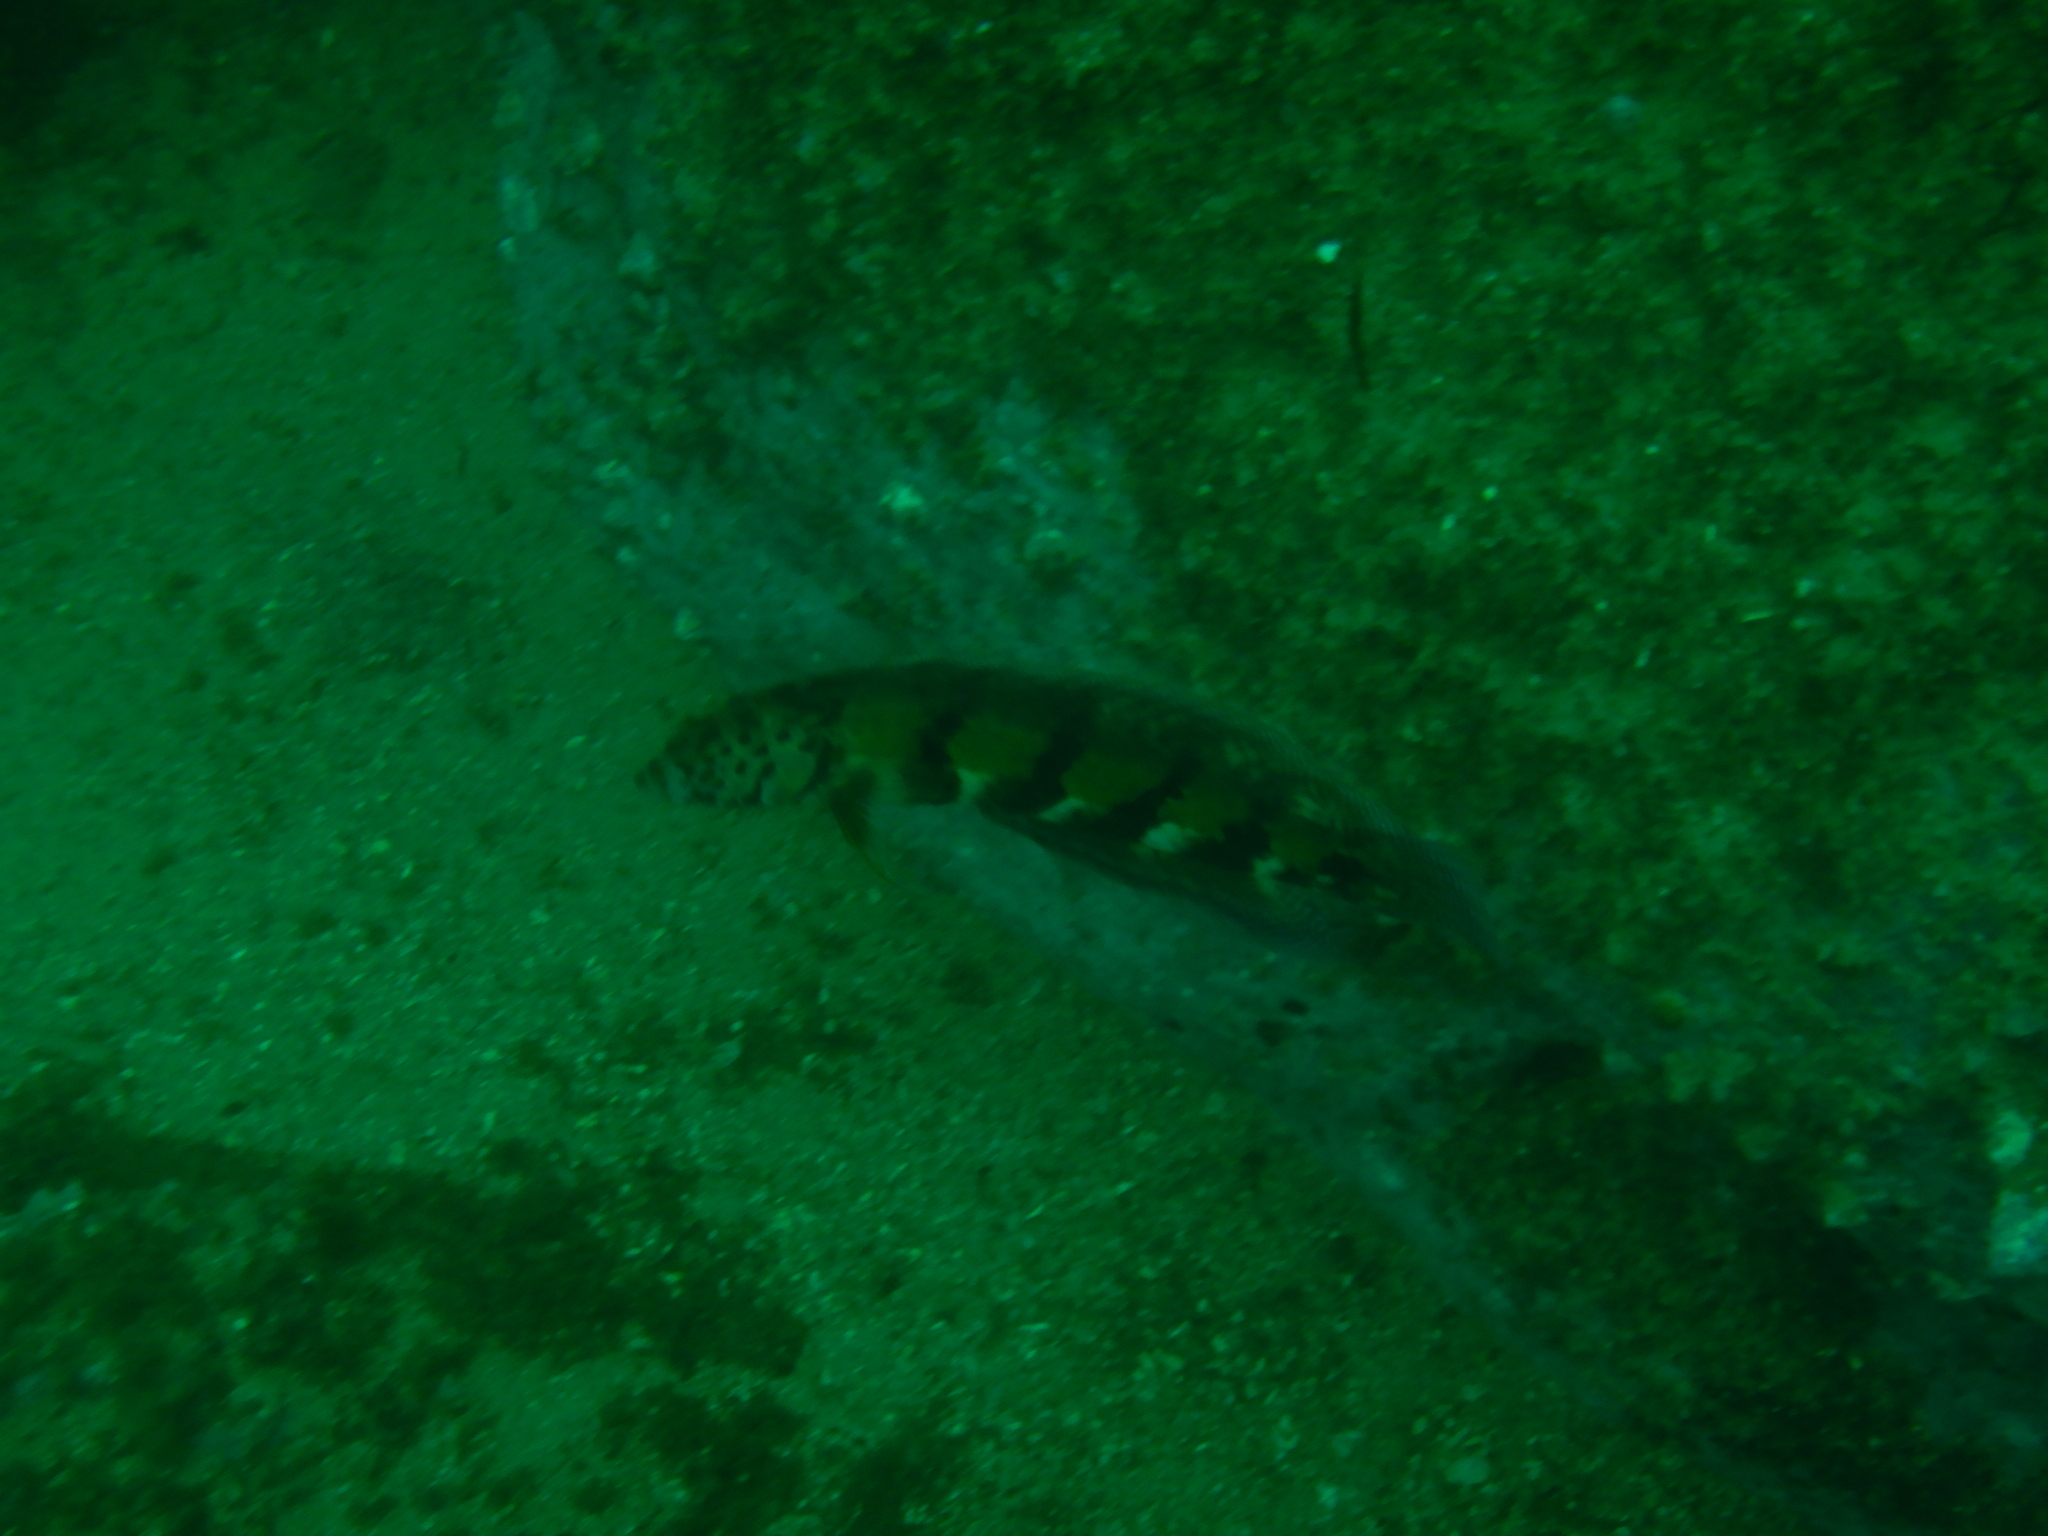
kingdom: Animalia
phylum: Chordata
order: Perciformes
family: Labridae
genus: Eupetrichthys
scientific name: Eupetrichthys angustipes
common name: Snake-skin wrasse
